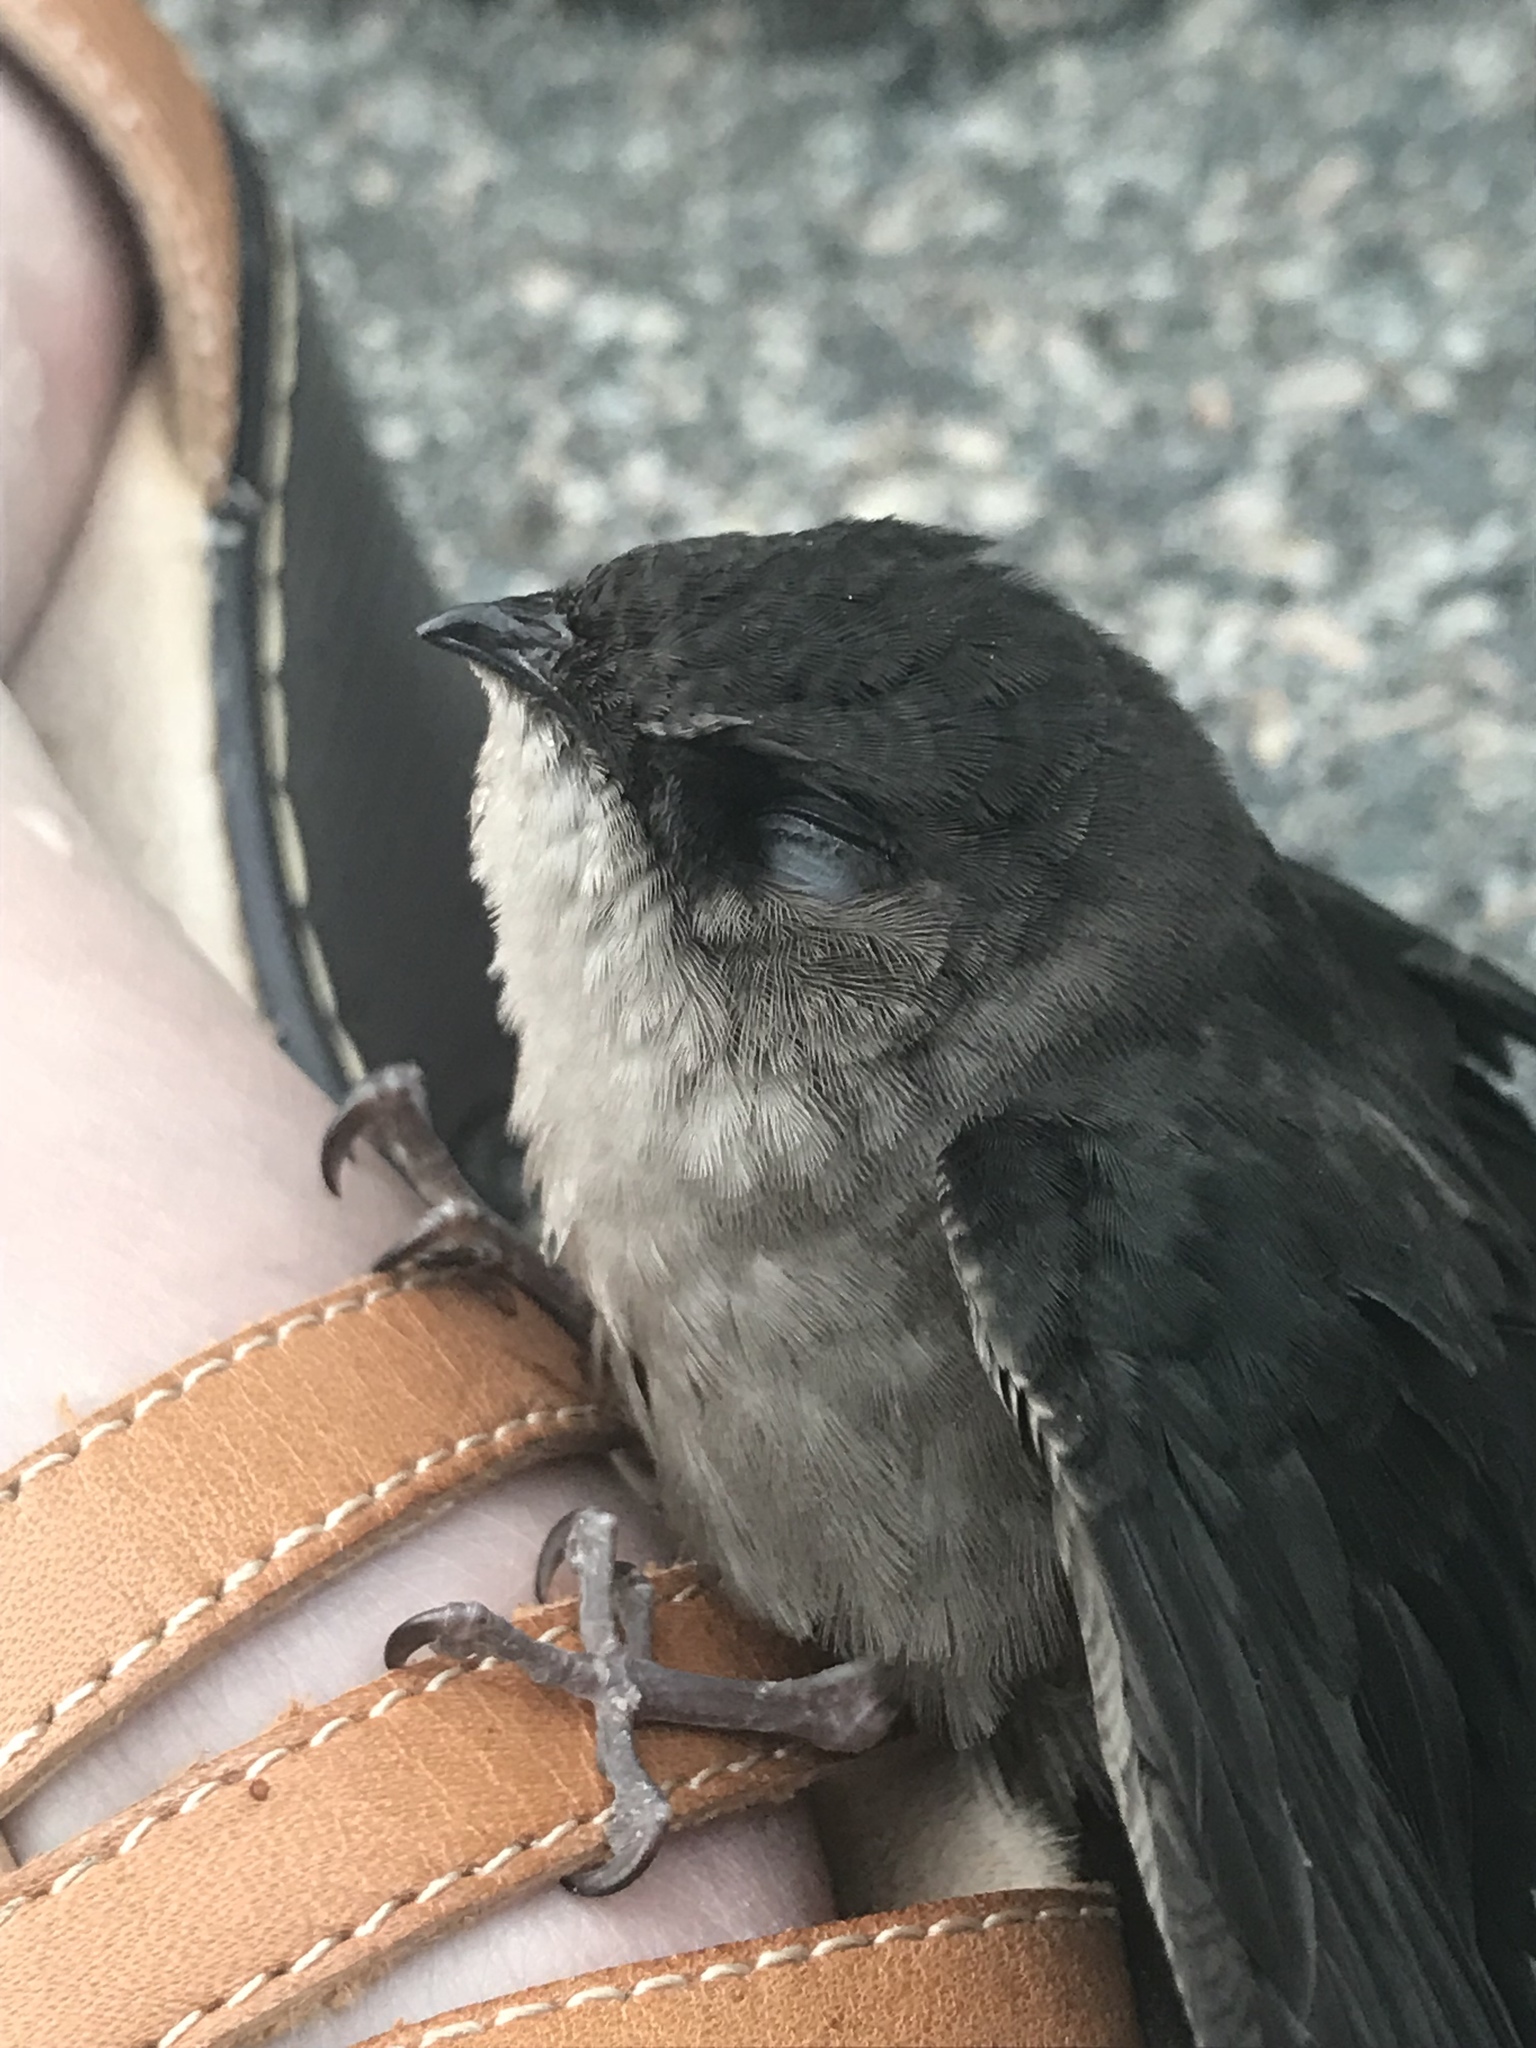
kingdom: Animalia
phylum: Chordata
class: Aves
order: Apodiformes
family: Apodidae
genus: Chaetura
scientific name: Chaetura pelagica
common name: Chimney swift
